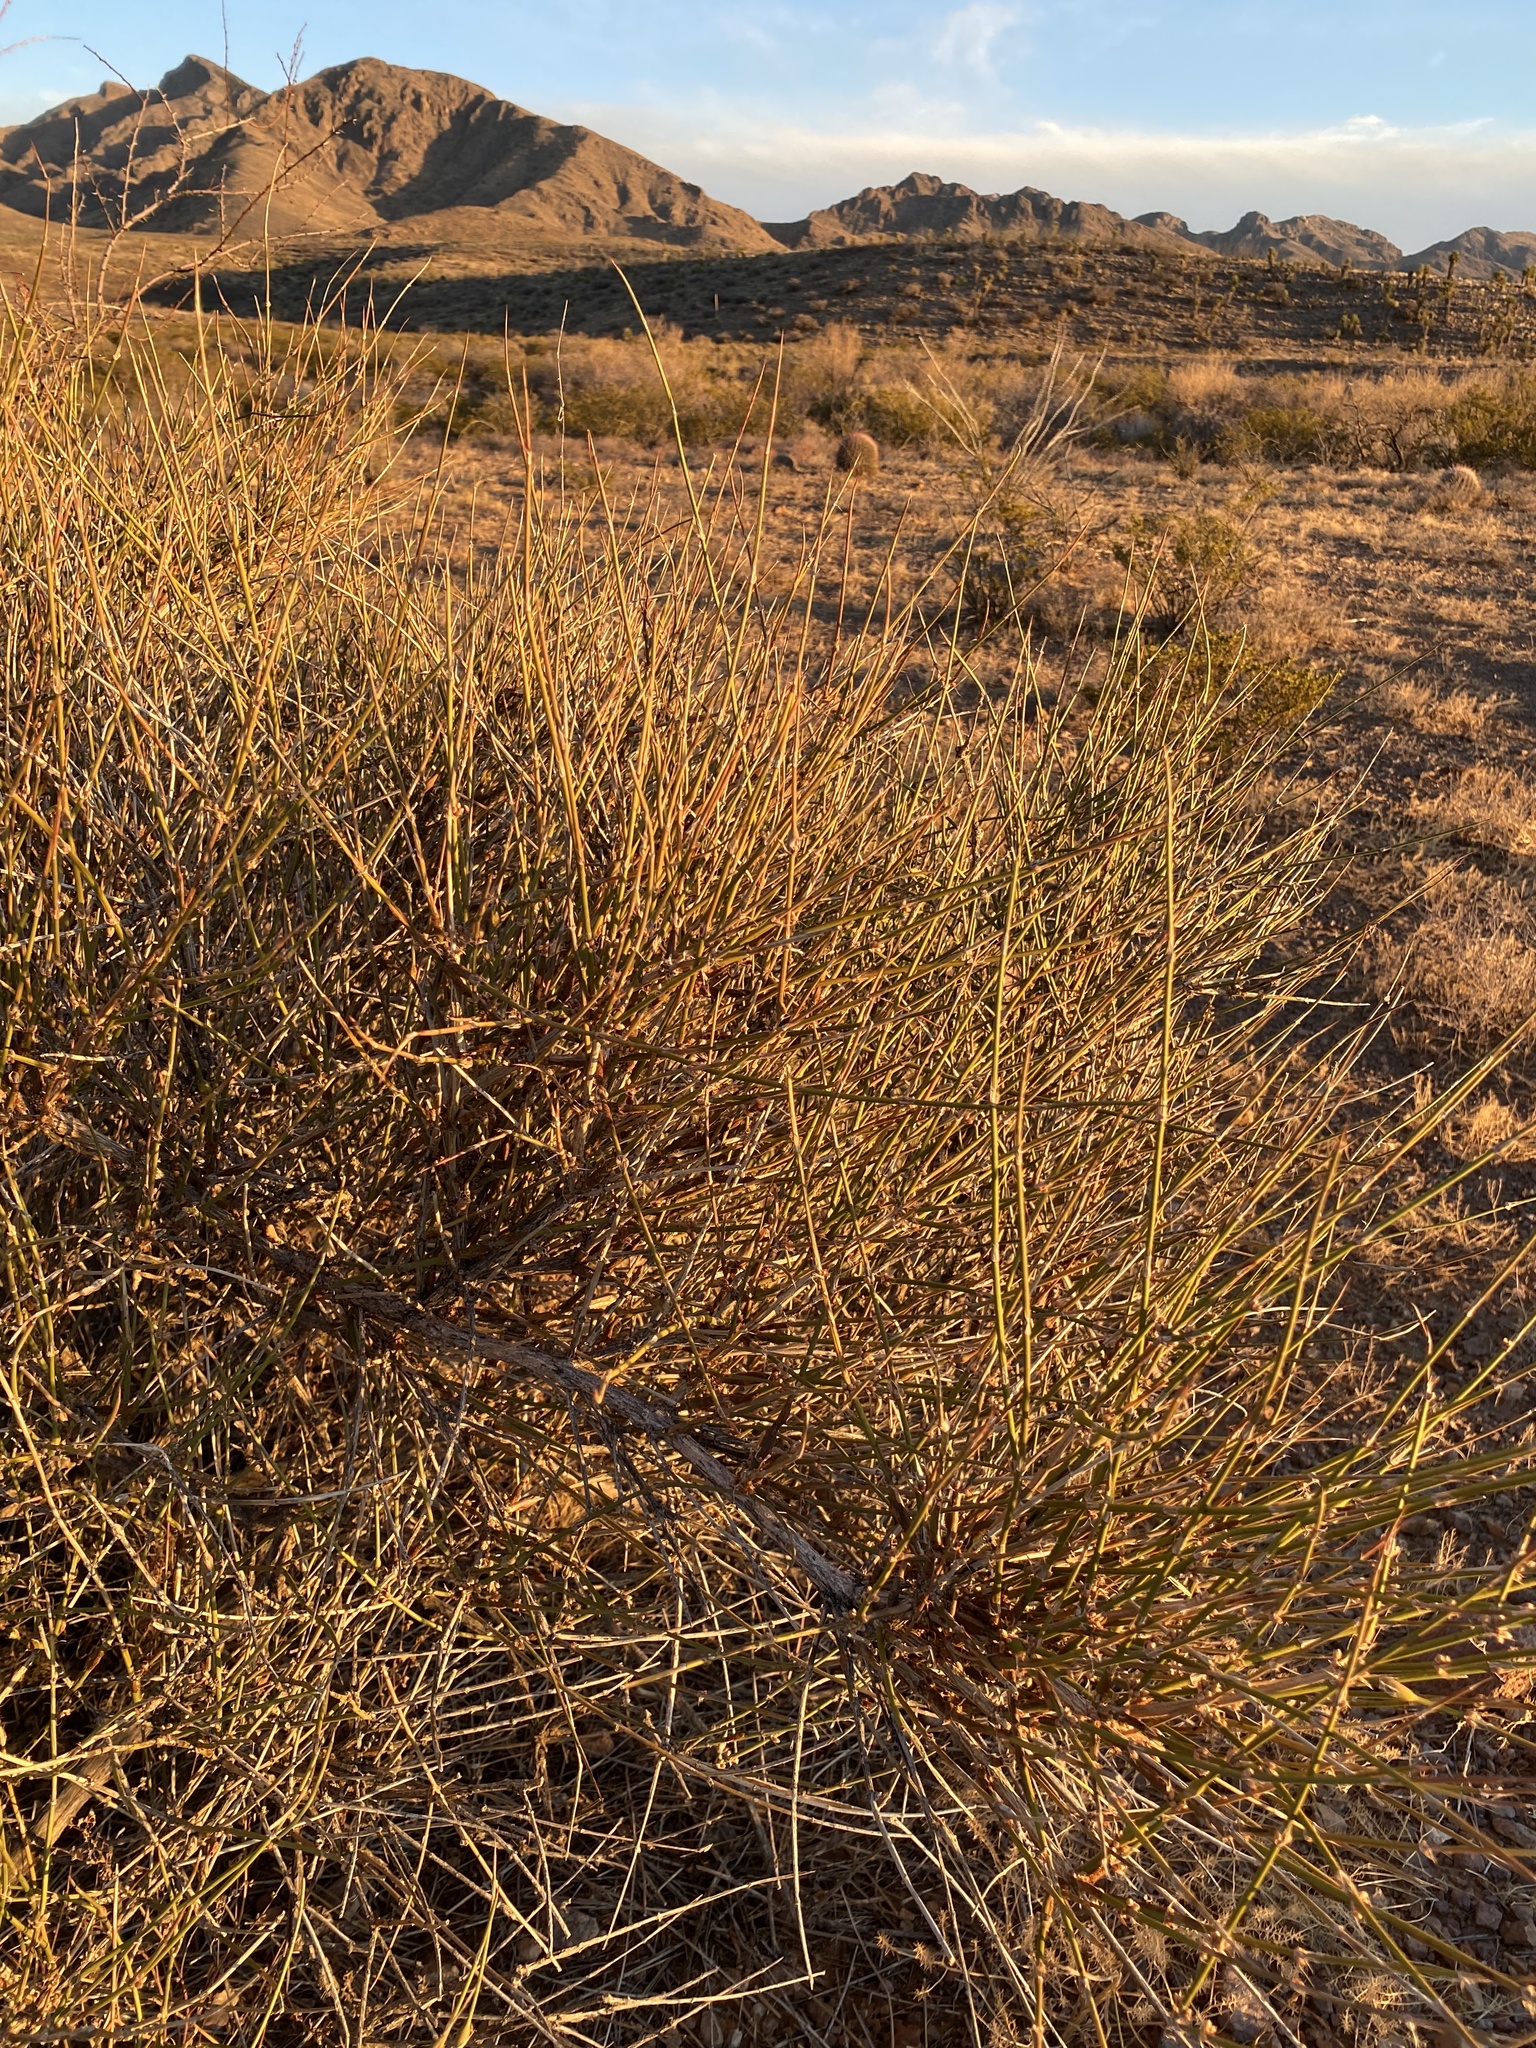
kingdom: Plantae
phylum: Tracheophyta
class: Gnetopsida
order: Ephedrales
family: Ephedraceae
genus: Ephedra
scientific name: Ephedra trifurca
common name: Mexican-tea
